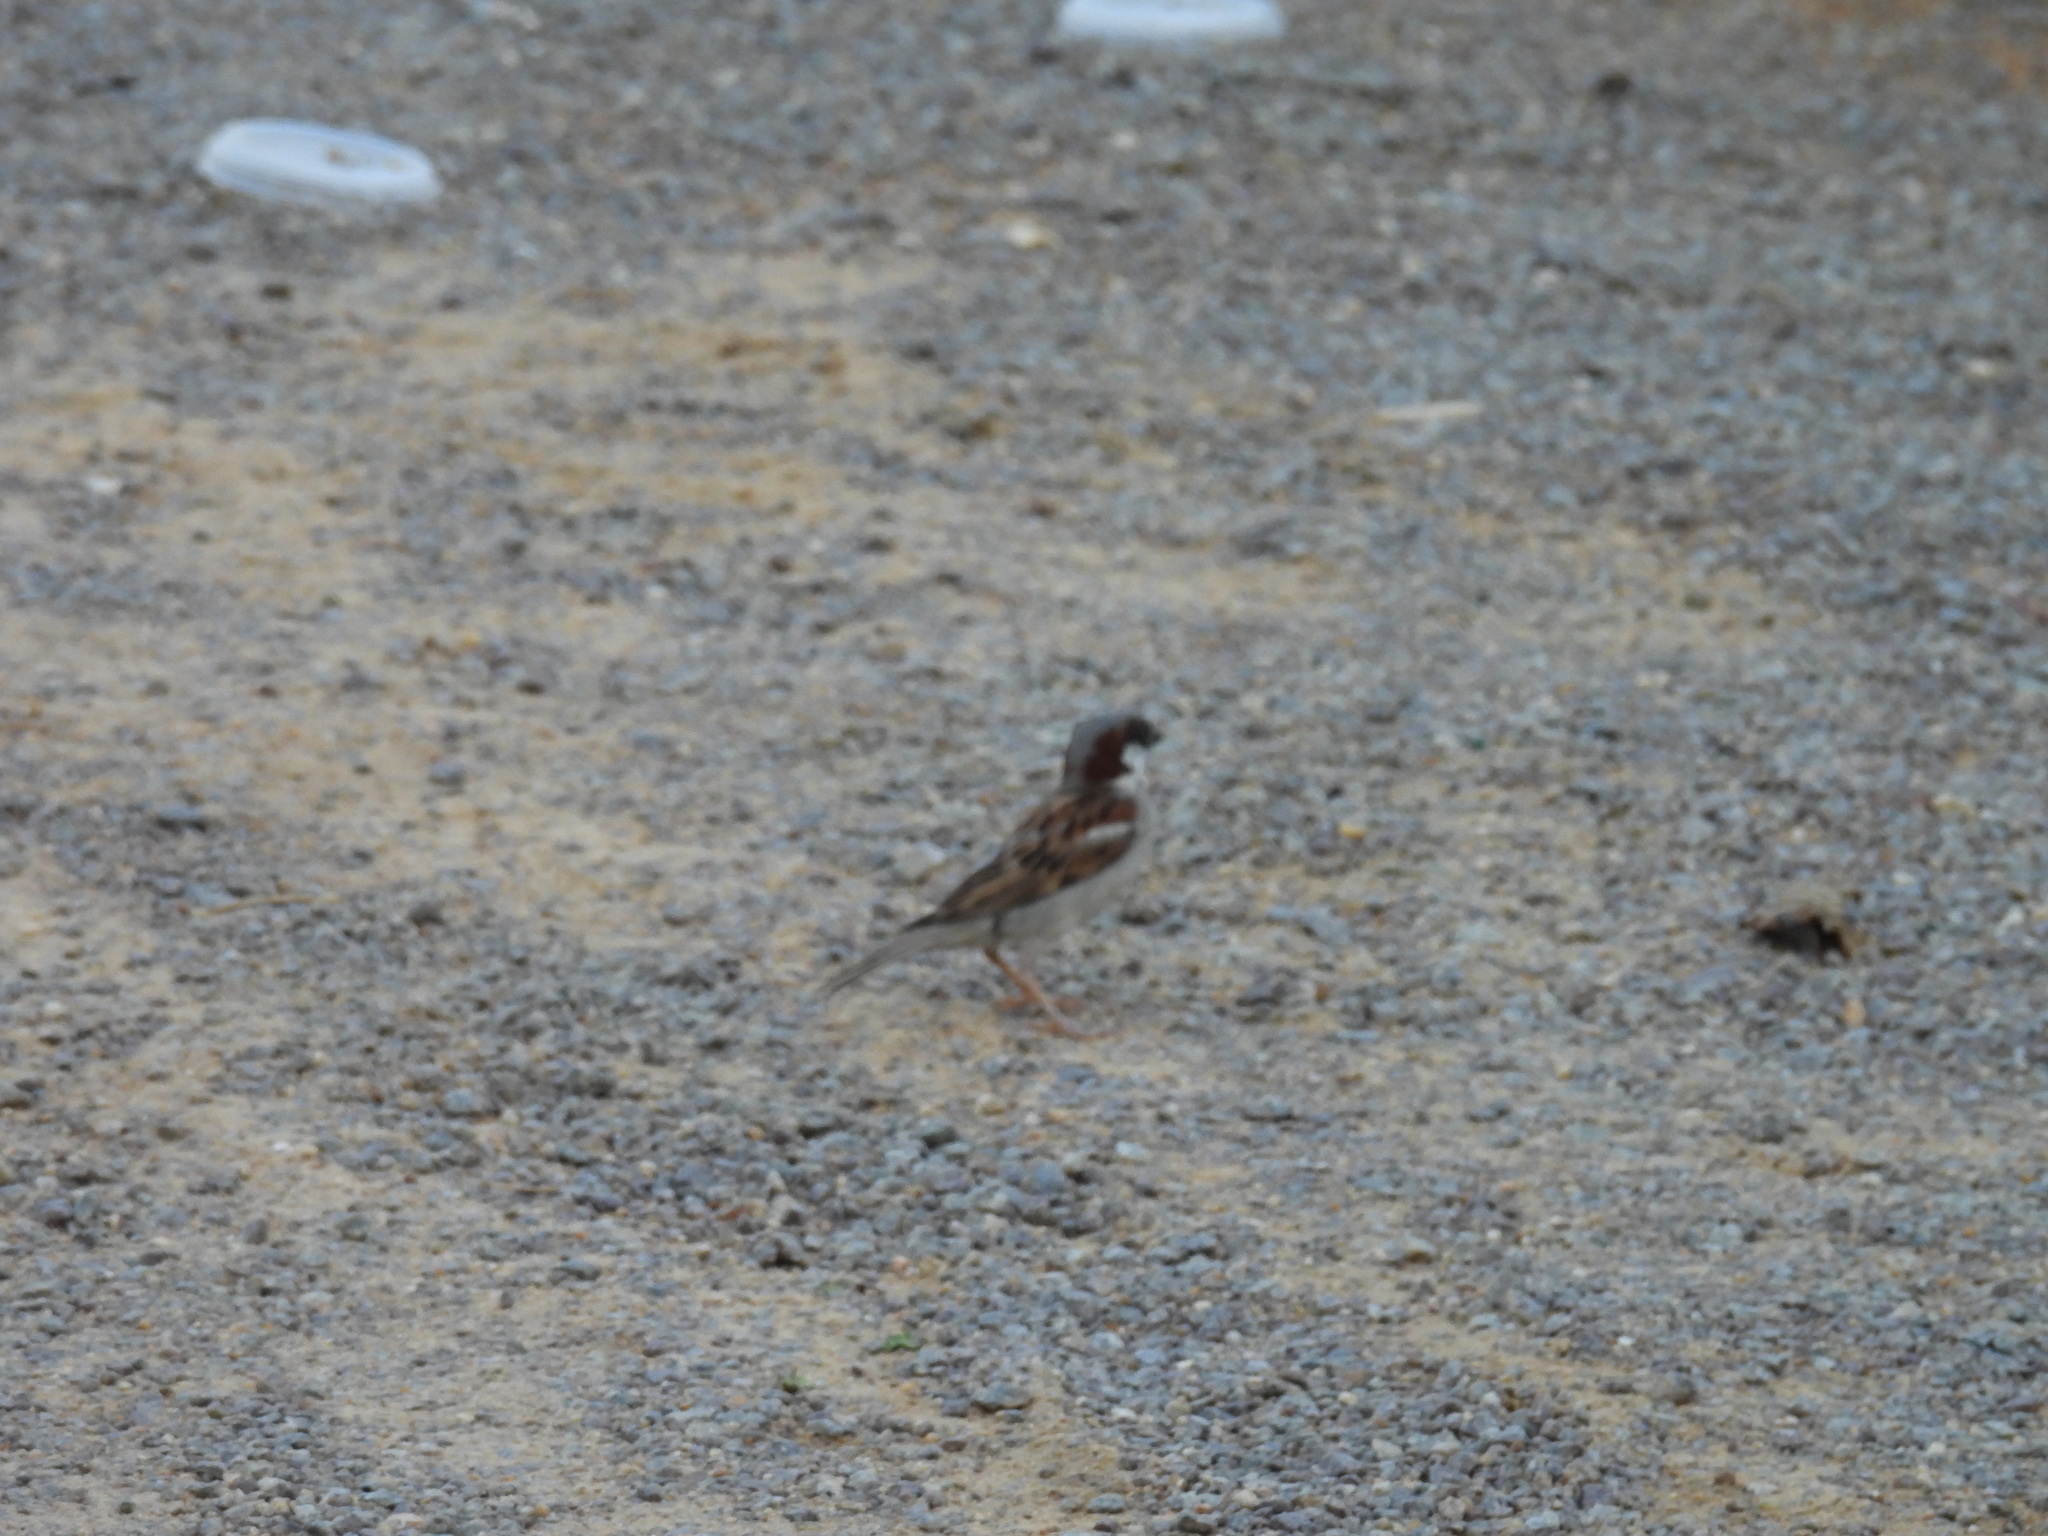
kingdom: Animalia
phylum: Chordata
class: Aves
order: Passeriformes
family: Passeridae
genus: Passer
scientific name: Passer domesticus
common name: House sparrow
